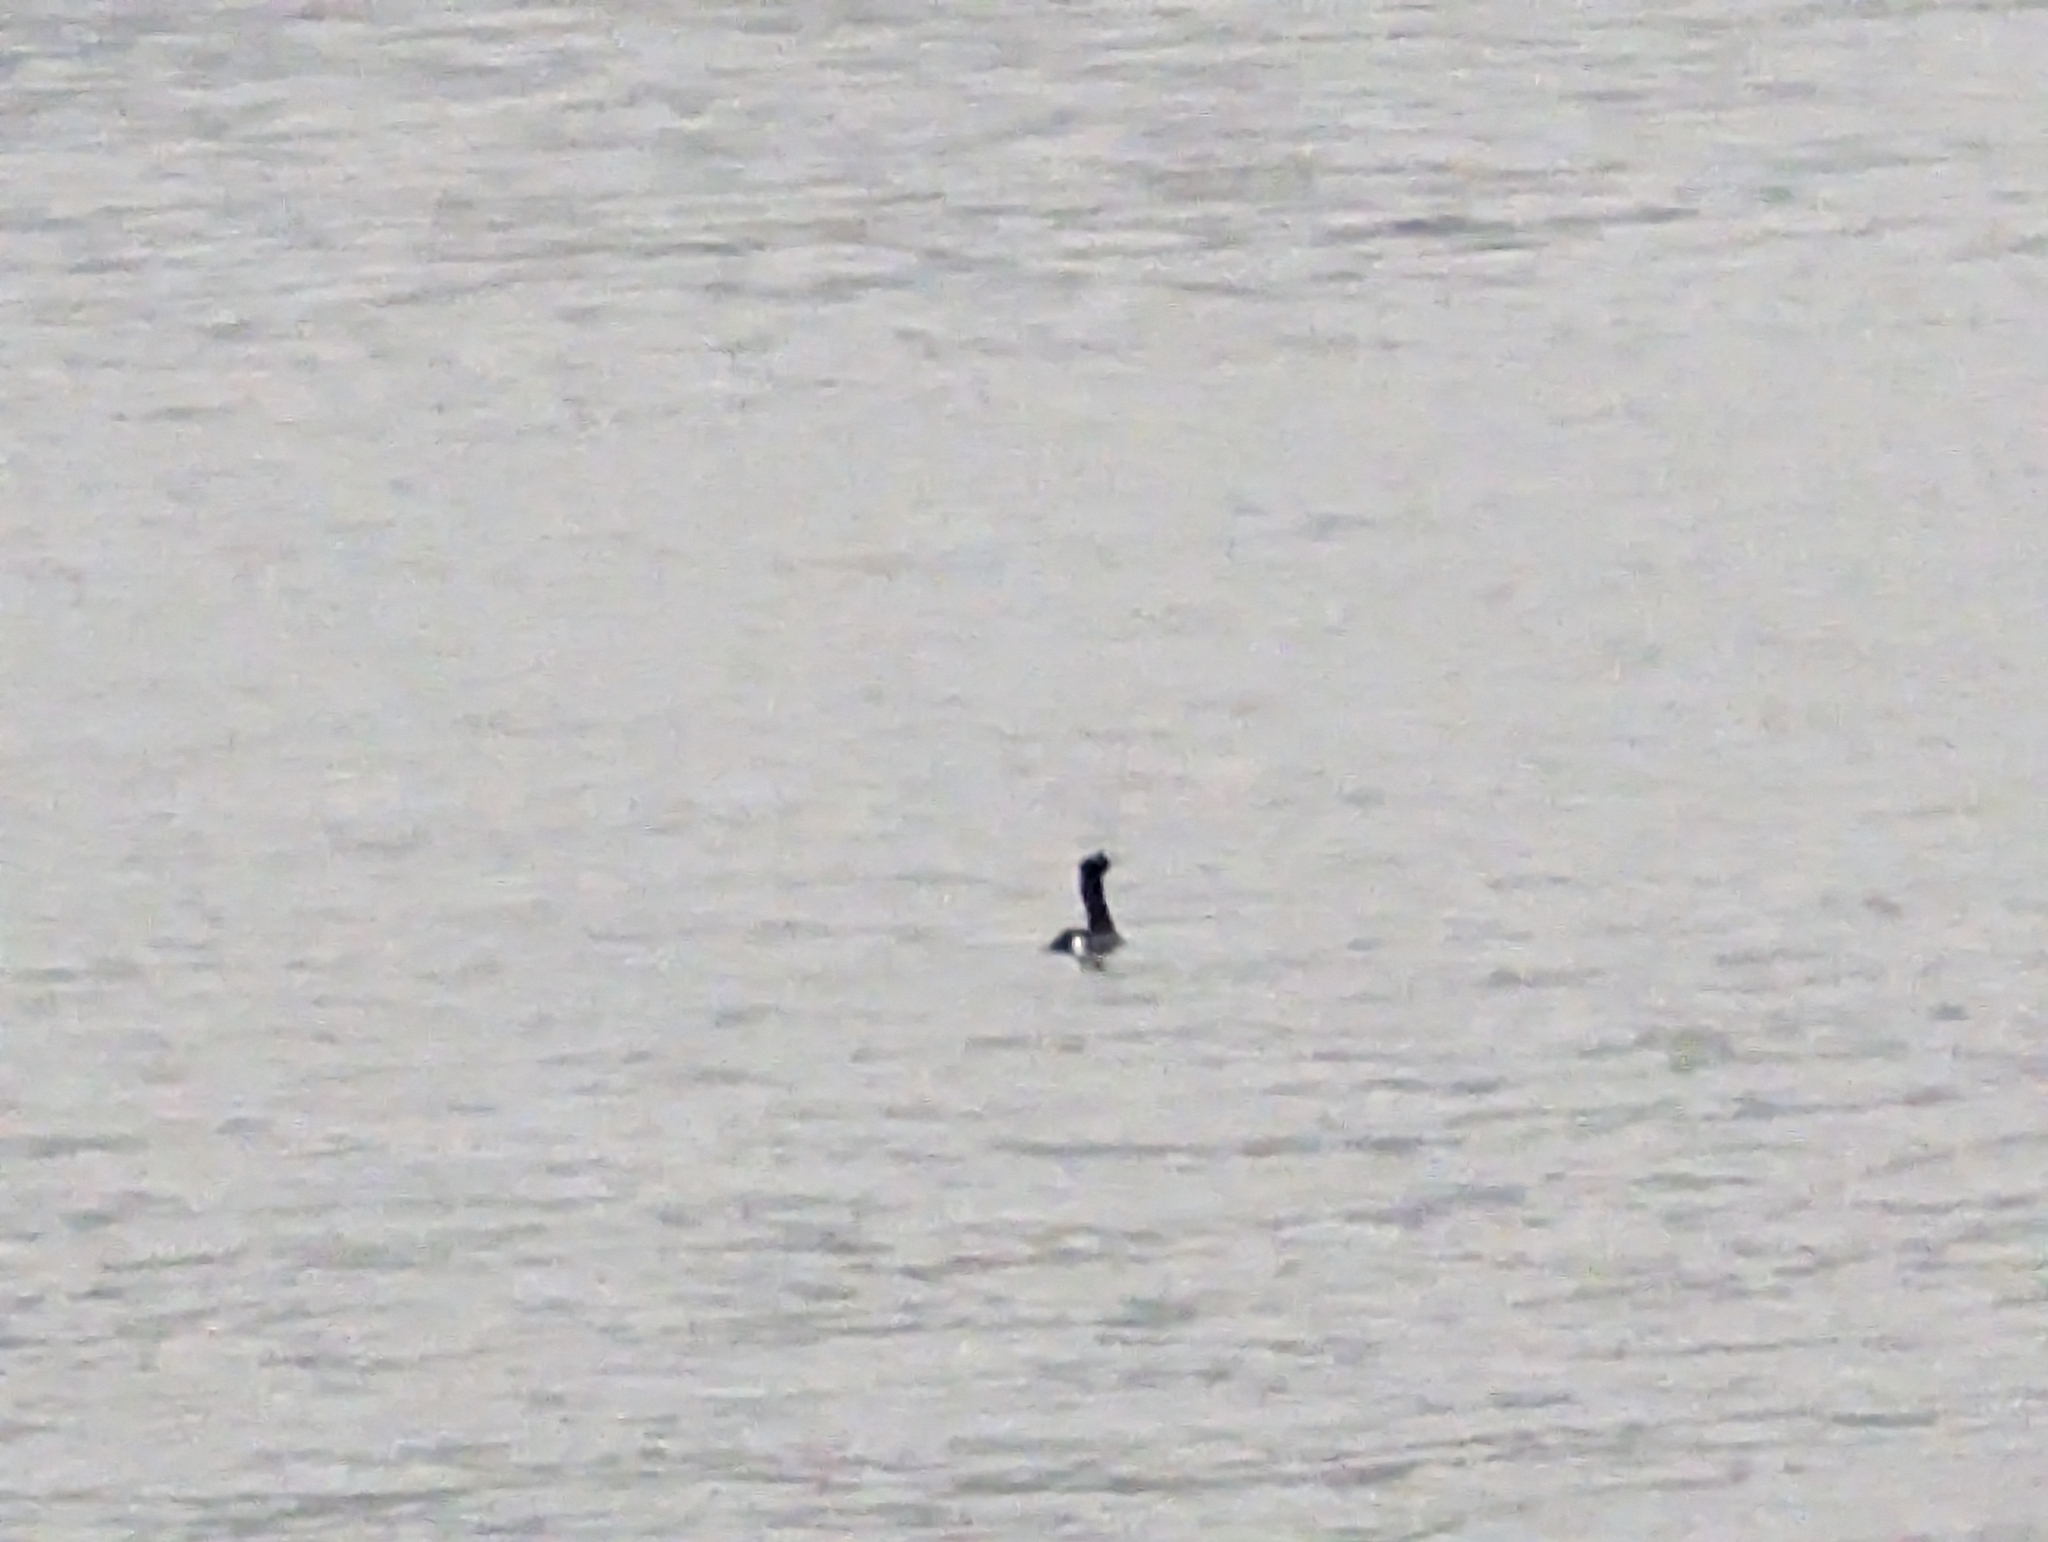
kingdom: Animalia
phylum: Chordata
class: Aves
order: Suliformes
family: Phalacrocoracidae
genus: Phalacrocorax
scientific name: Phalacrocorax pelagicus
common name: Pelagic cormorant
